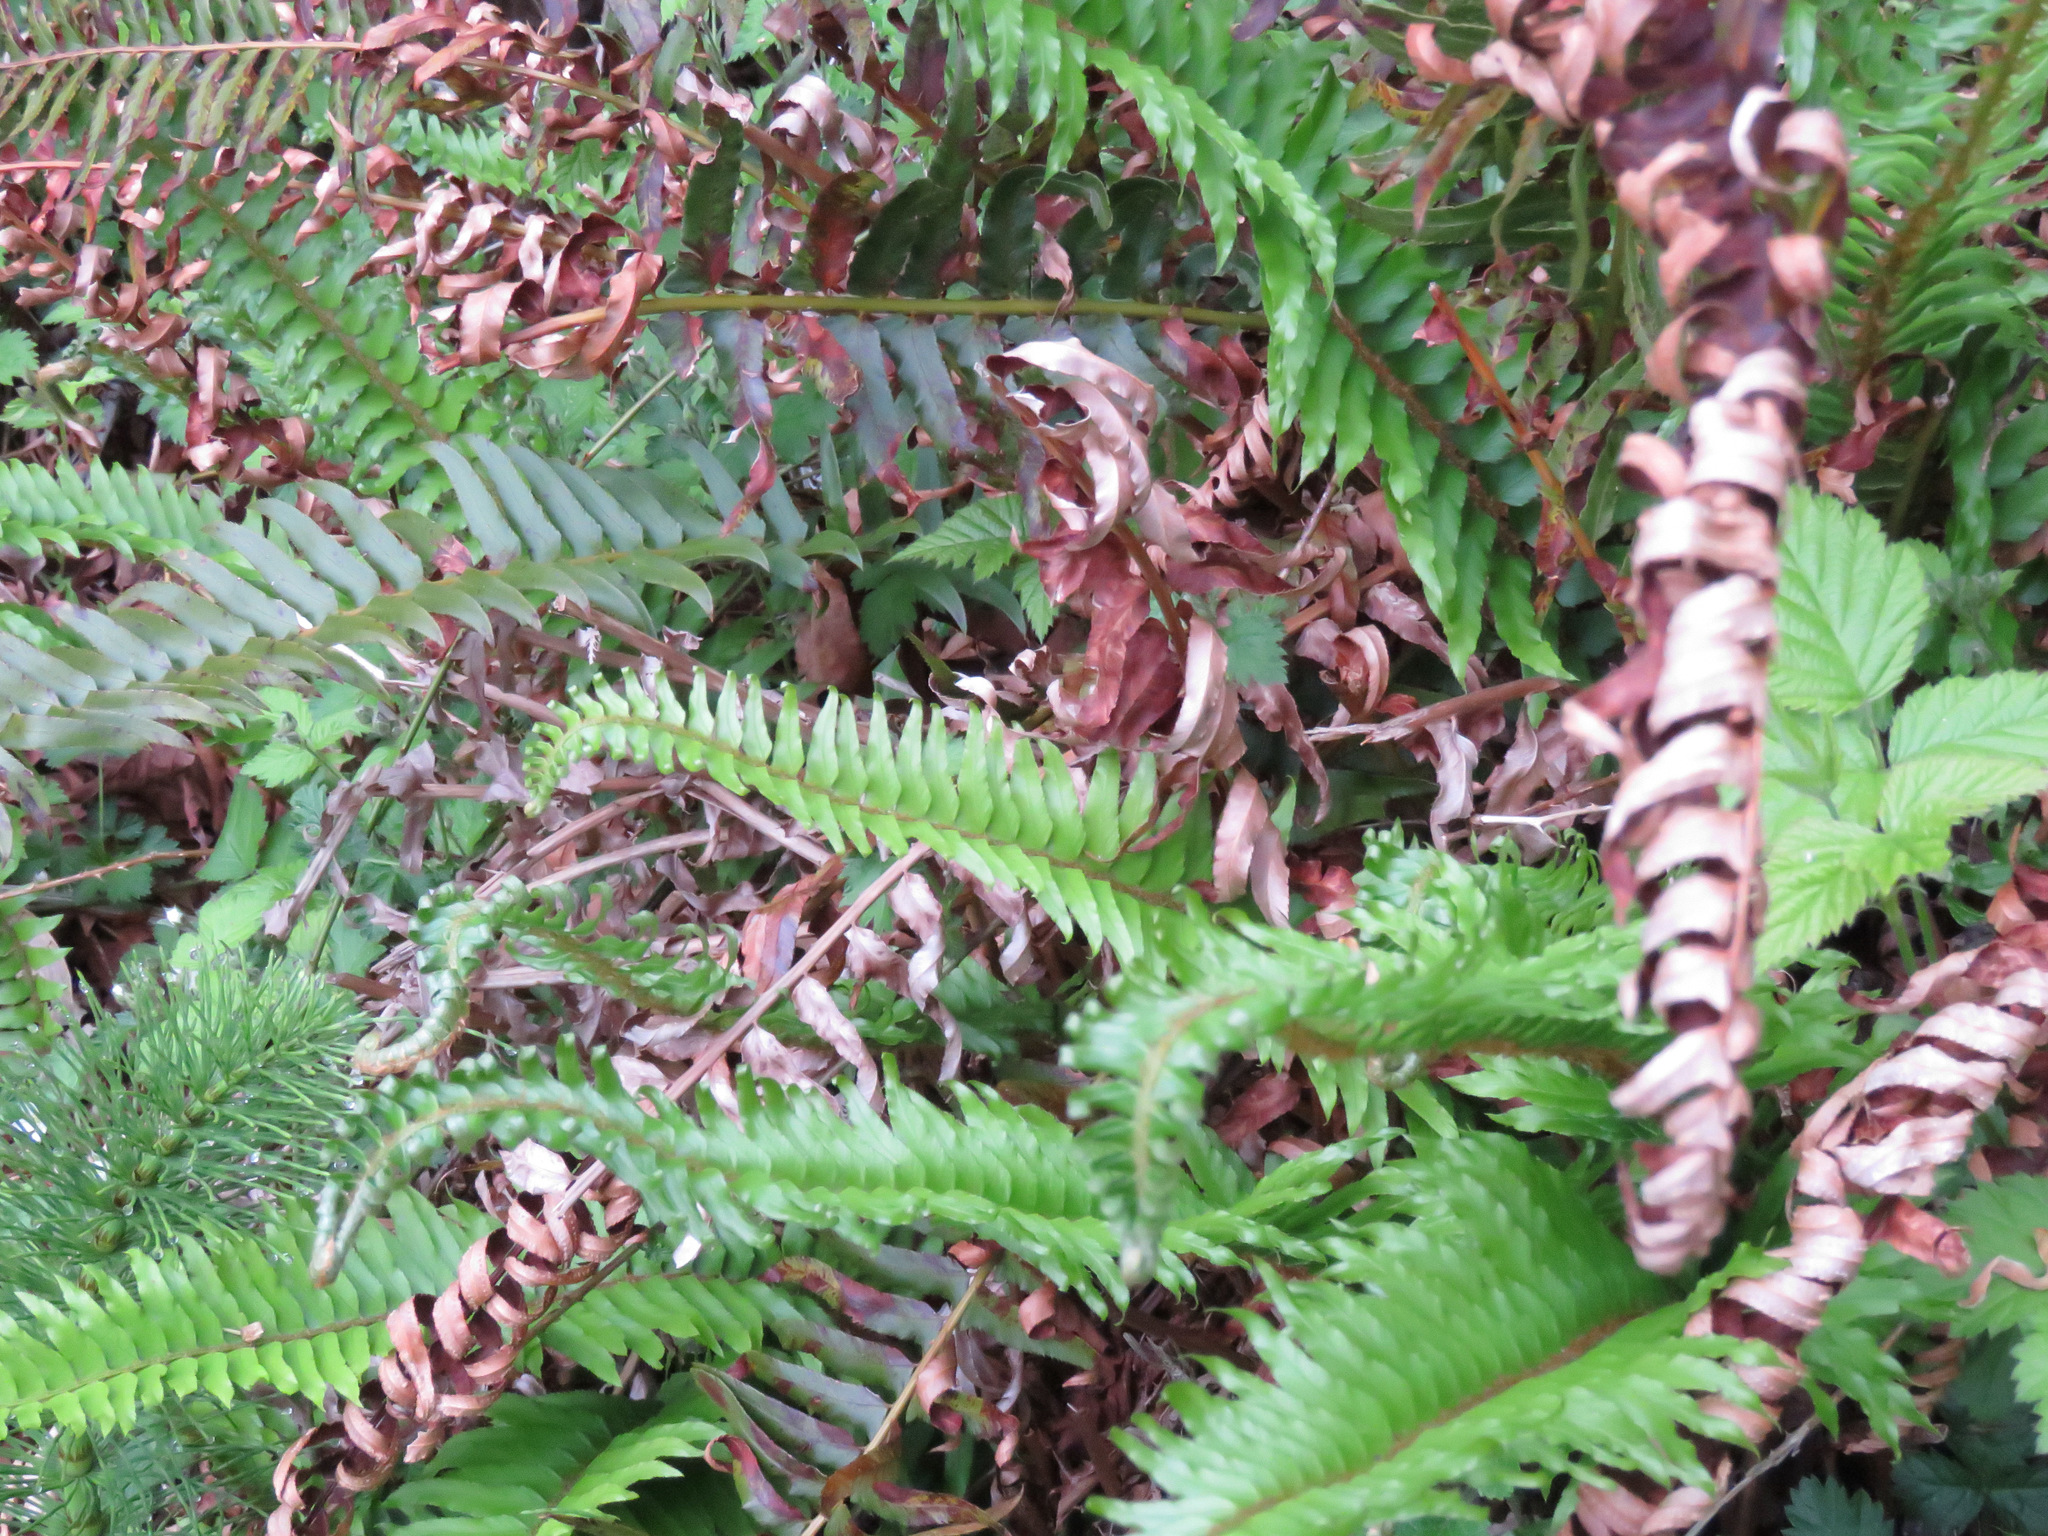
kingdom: Plantae
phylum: Tracheophyta
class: Polypodiopsida
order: Polypodiales
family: Dryopteridaceae
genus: Polystichum
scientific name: Polystichum munitum
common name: Western sword-fern
